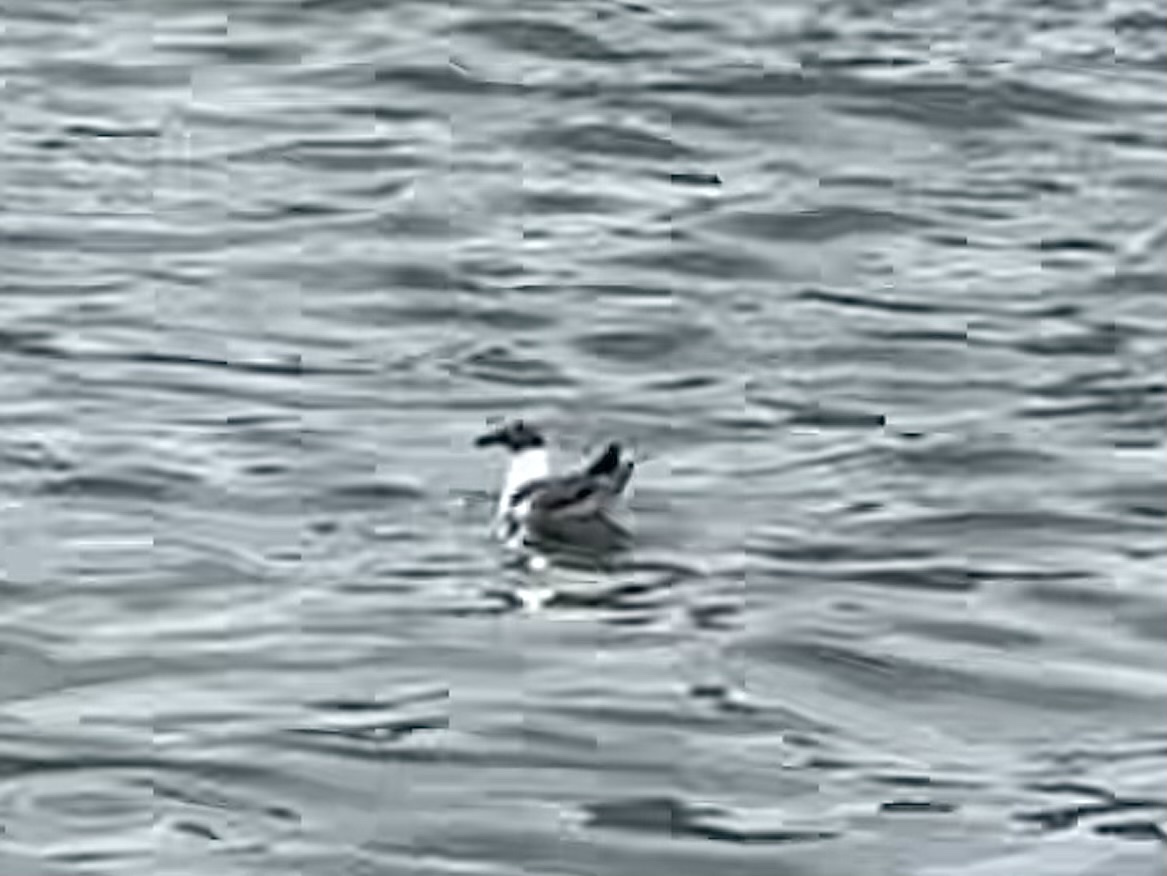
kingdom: Animalia
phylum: Chordata
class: Aves
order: Charadriiformes
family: Laridae
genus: Leucophaeus
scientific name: Leucophaeus atricilla
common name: Laughing gull
